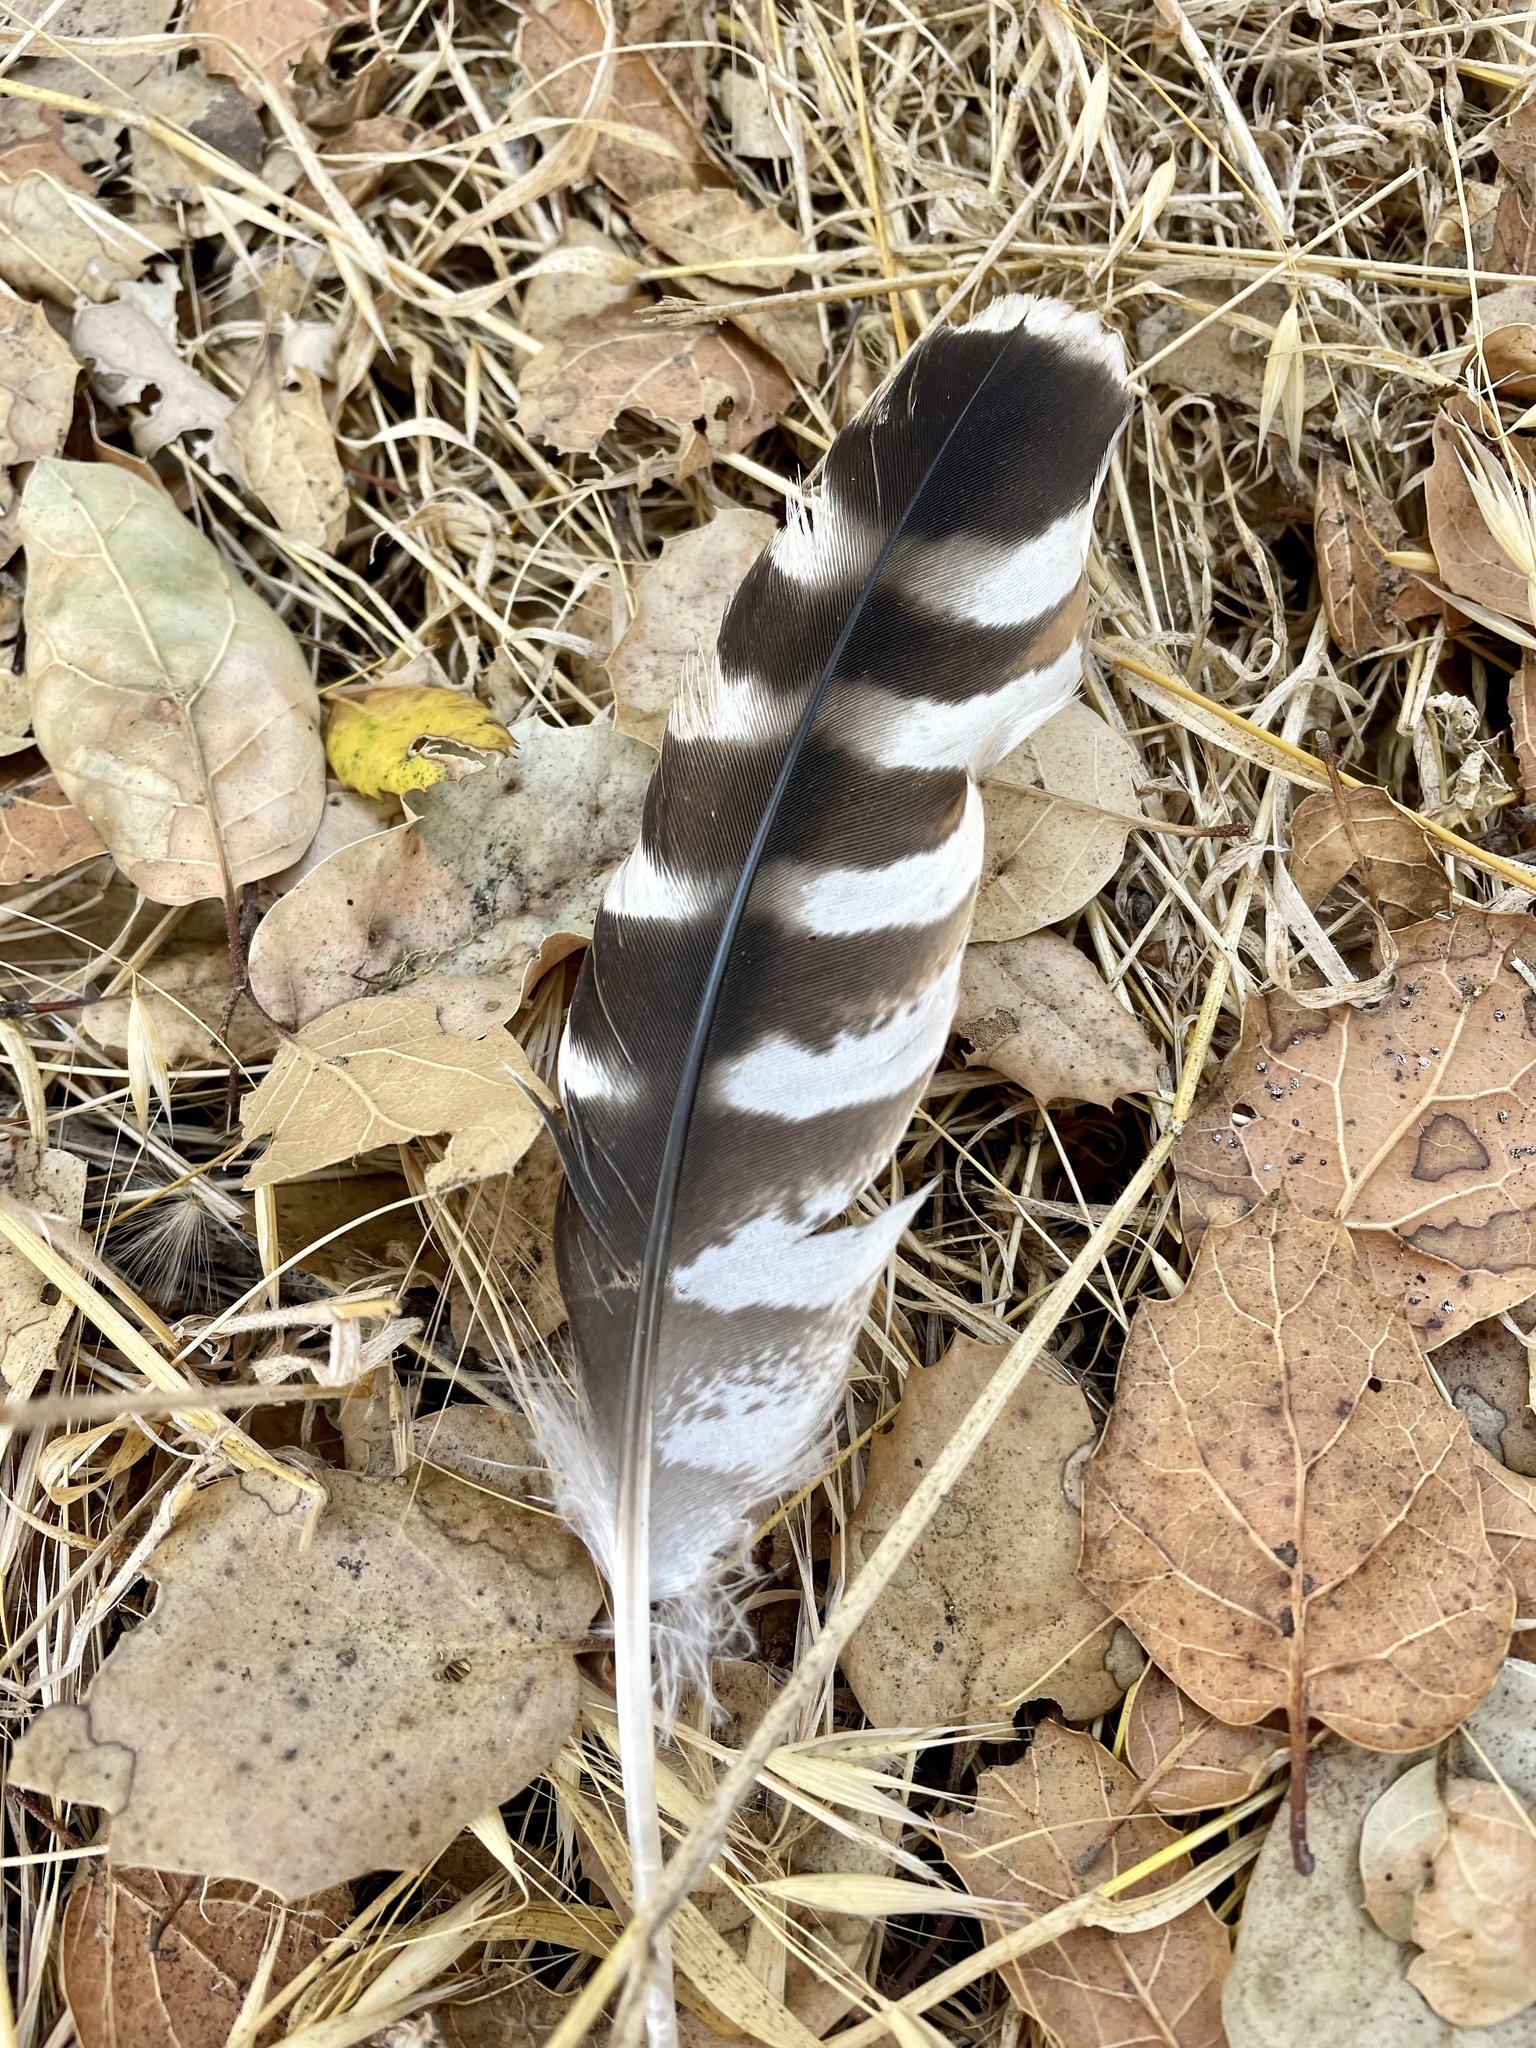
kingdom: Animalia
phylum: Chordata
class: Aves
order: Accipitriformes
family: Accipitridae
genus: Buteo
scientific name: Buteo lineatus
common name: Red-shouldered hawk
